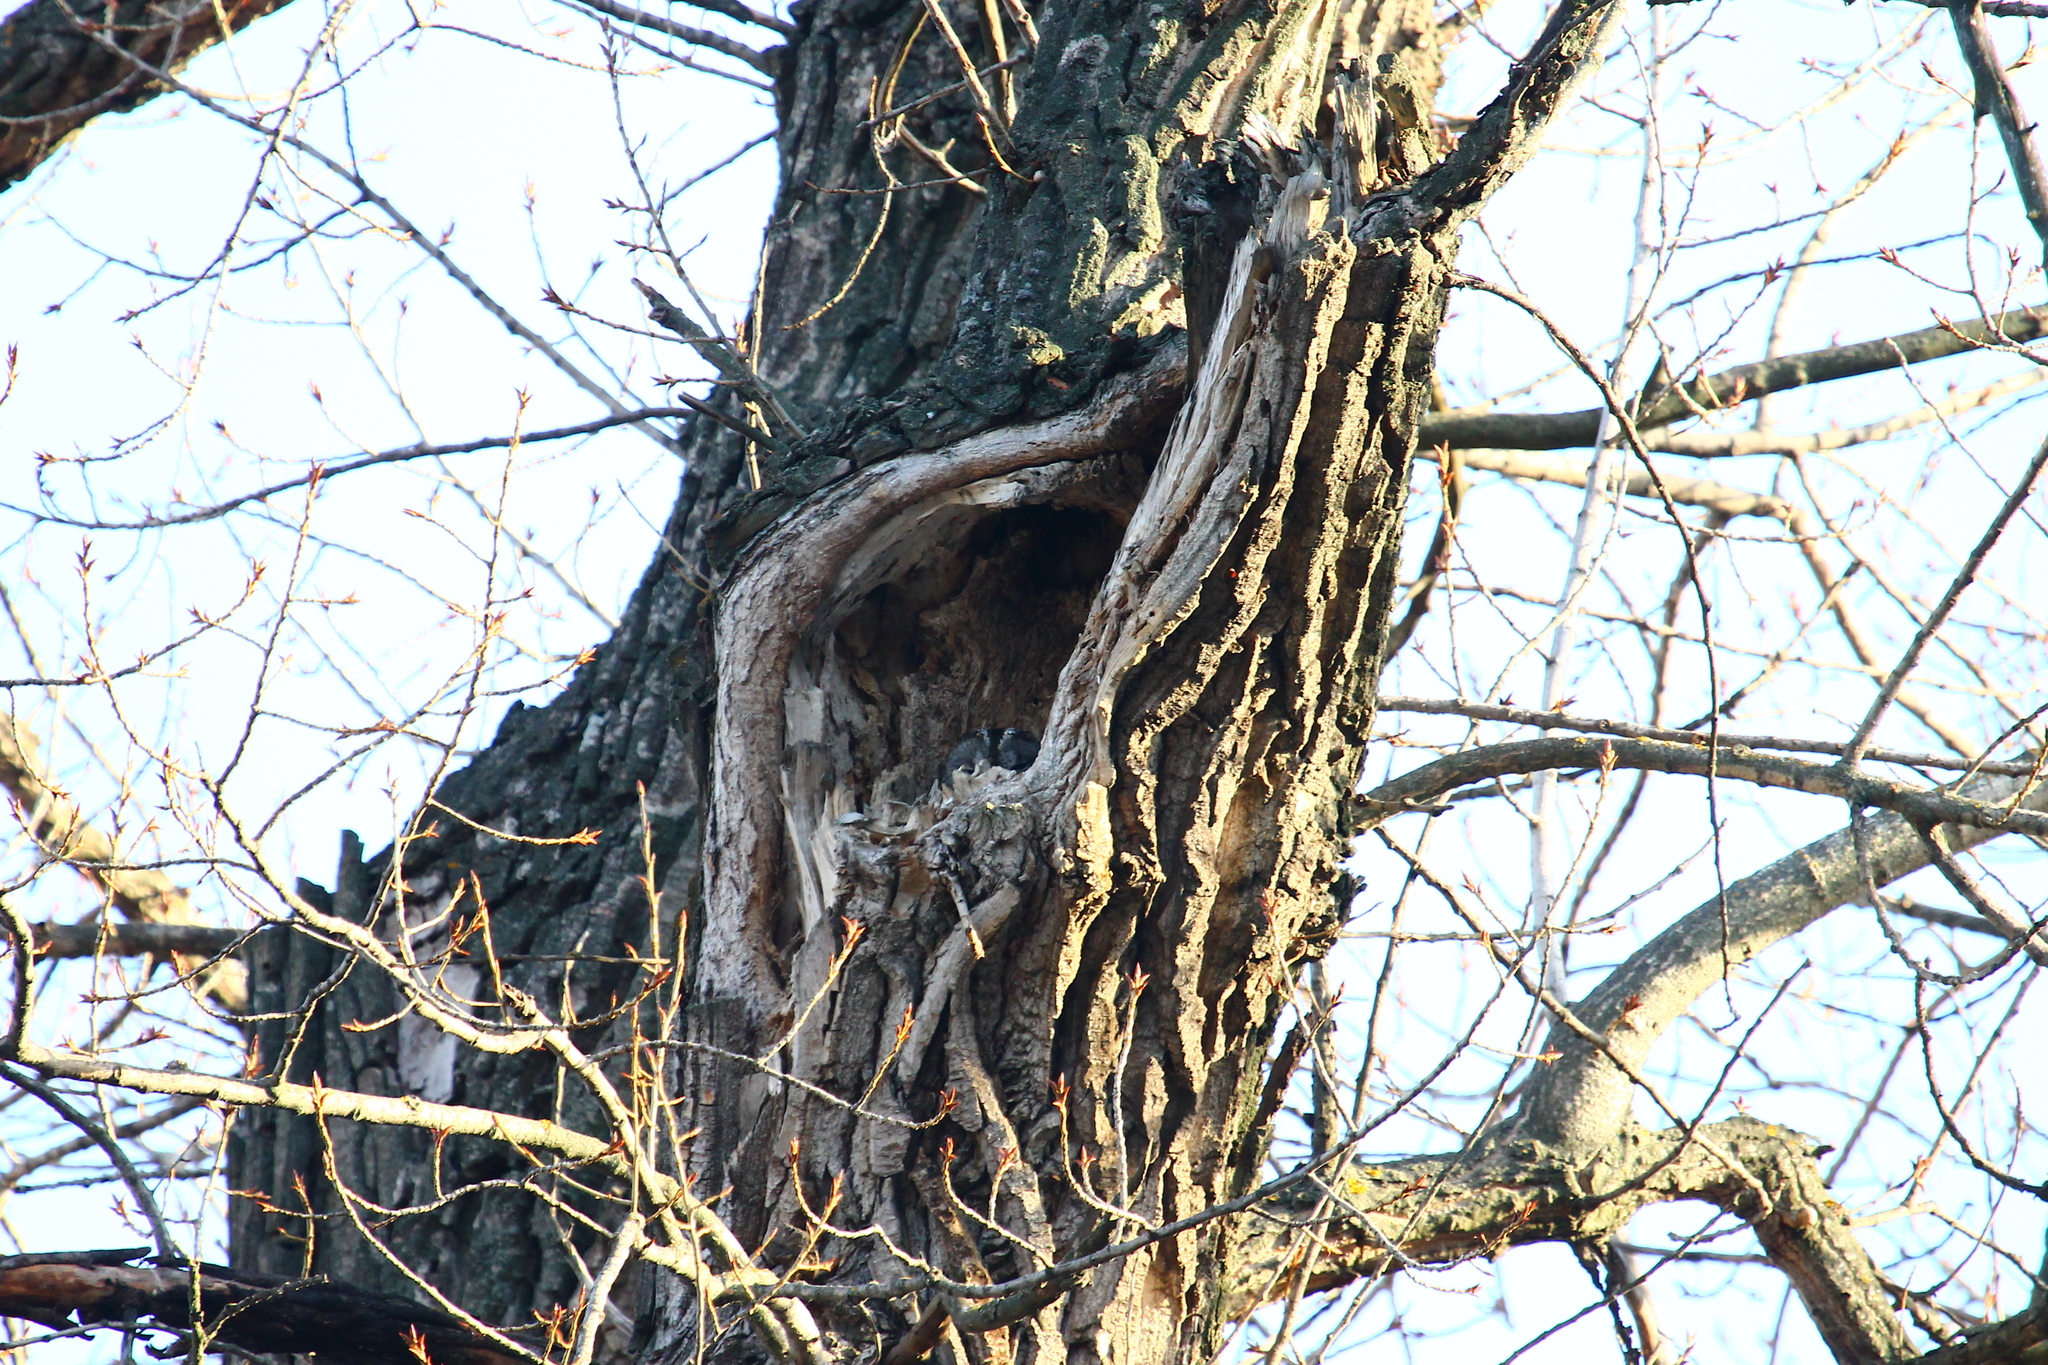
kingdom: Animalia
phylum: Chordata
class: Aves
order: Strigiformes
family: Strigidae
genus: Strix
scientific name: Strix aluco
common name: Tawny owl
